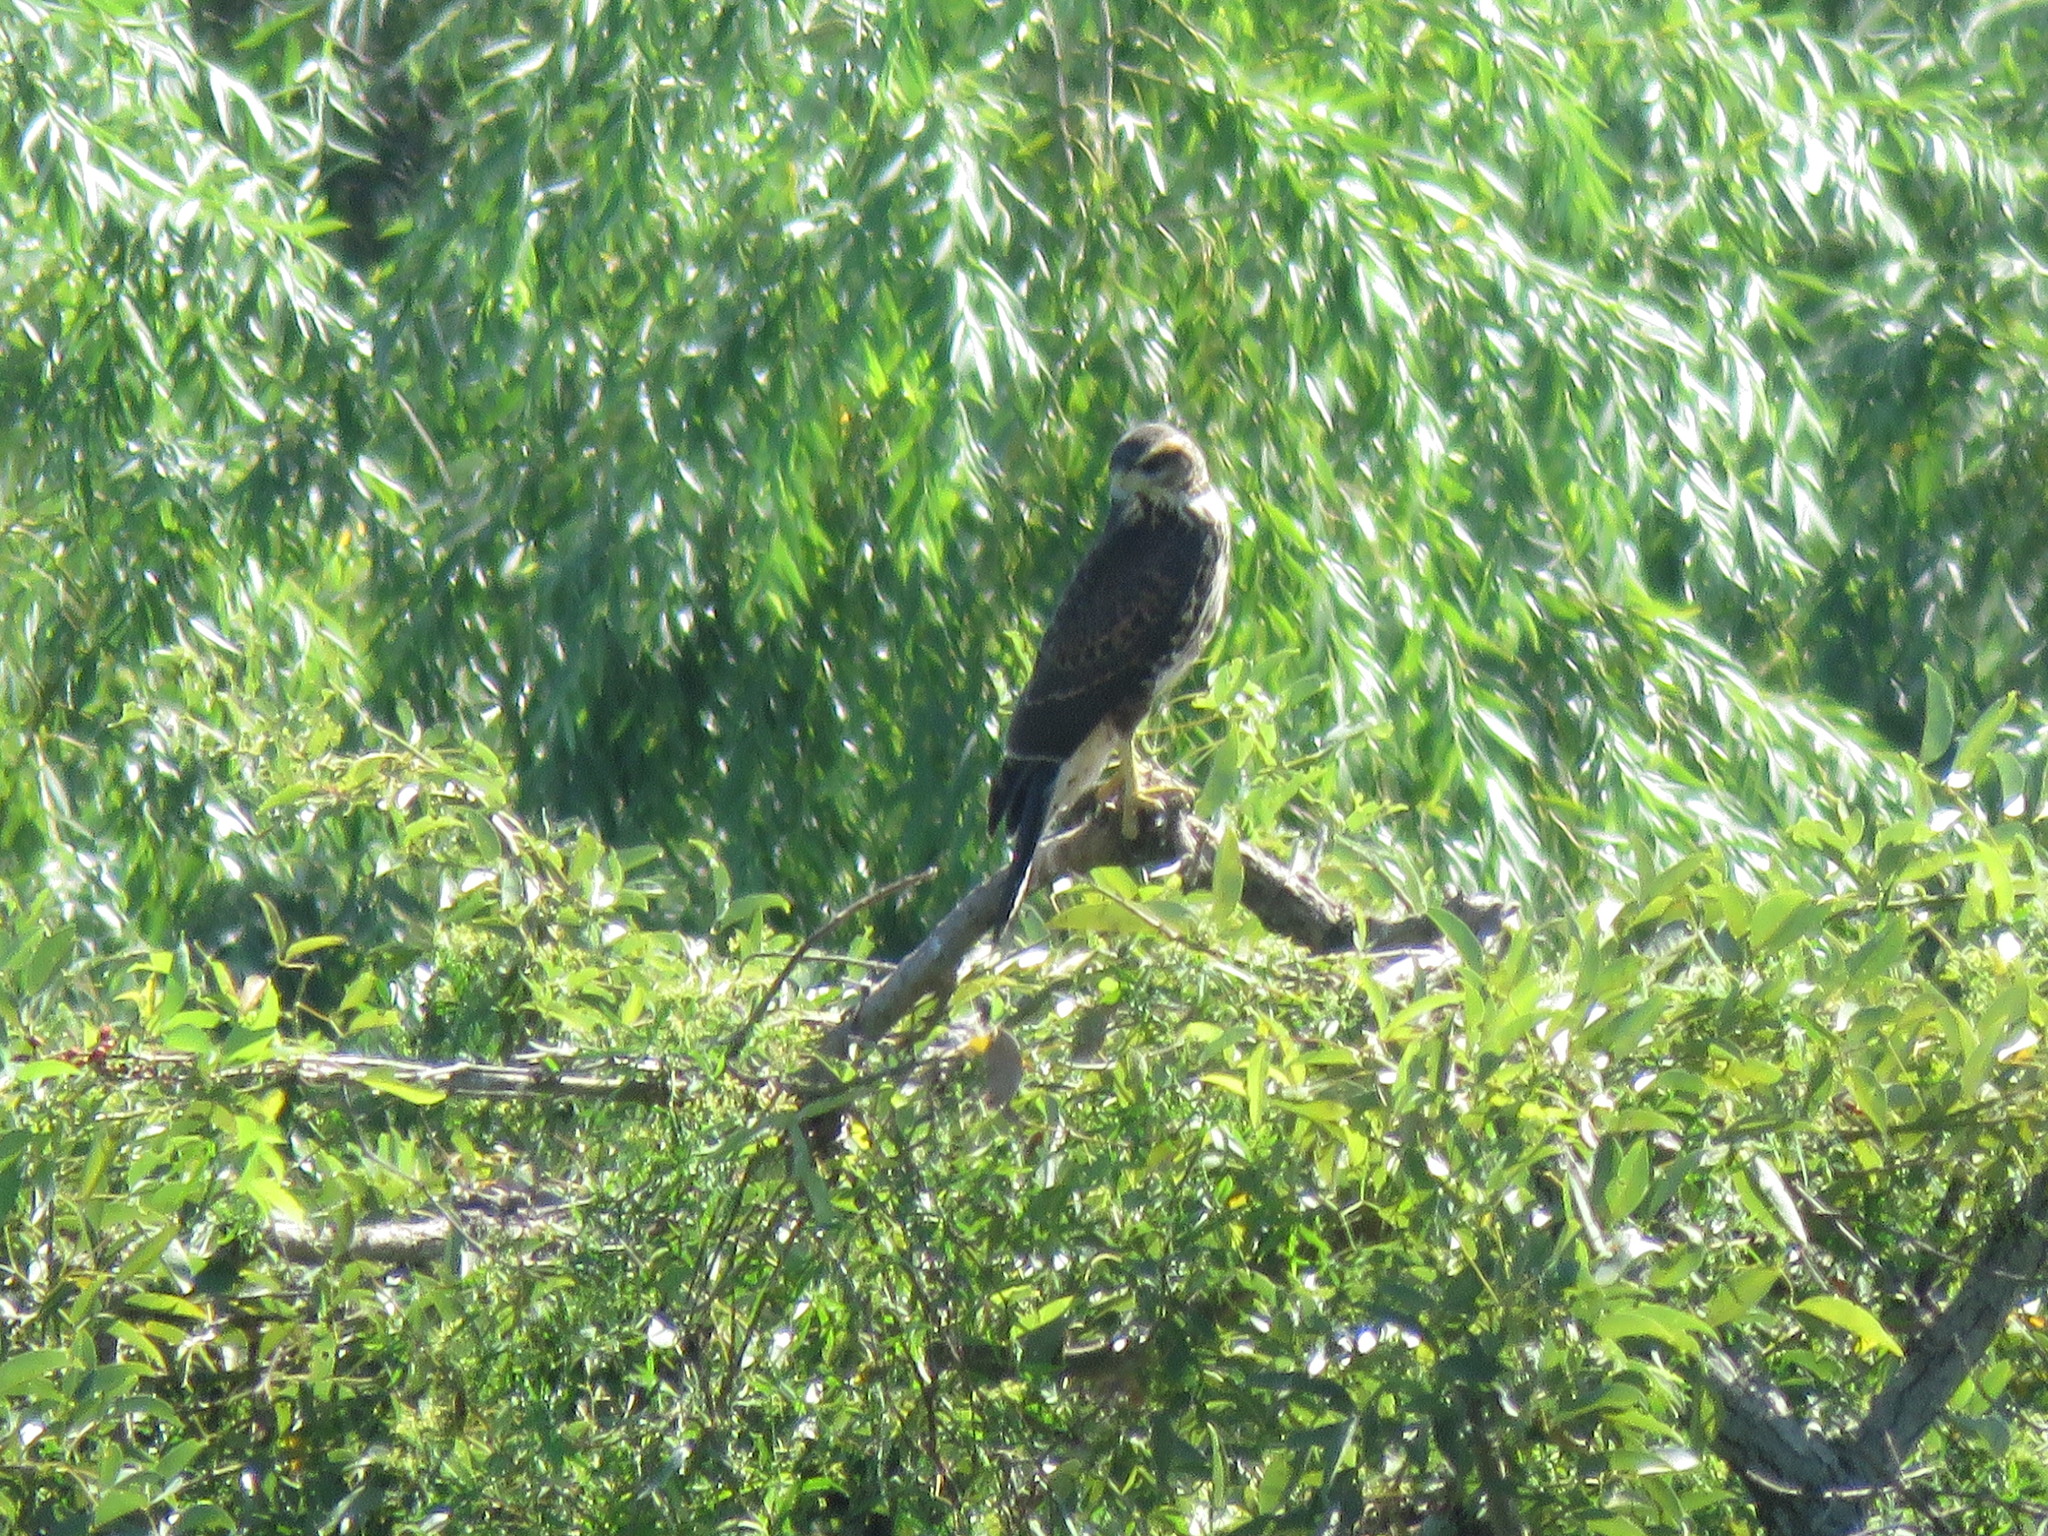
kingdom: Animalia
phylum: Chordata
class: Aves
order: Accipitriformes
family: Accipitridae
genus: Parabuteo
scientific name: Parabuteo unicinctus
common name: Harris's hawk
